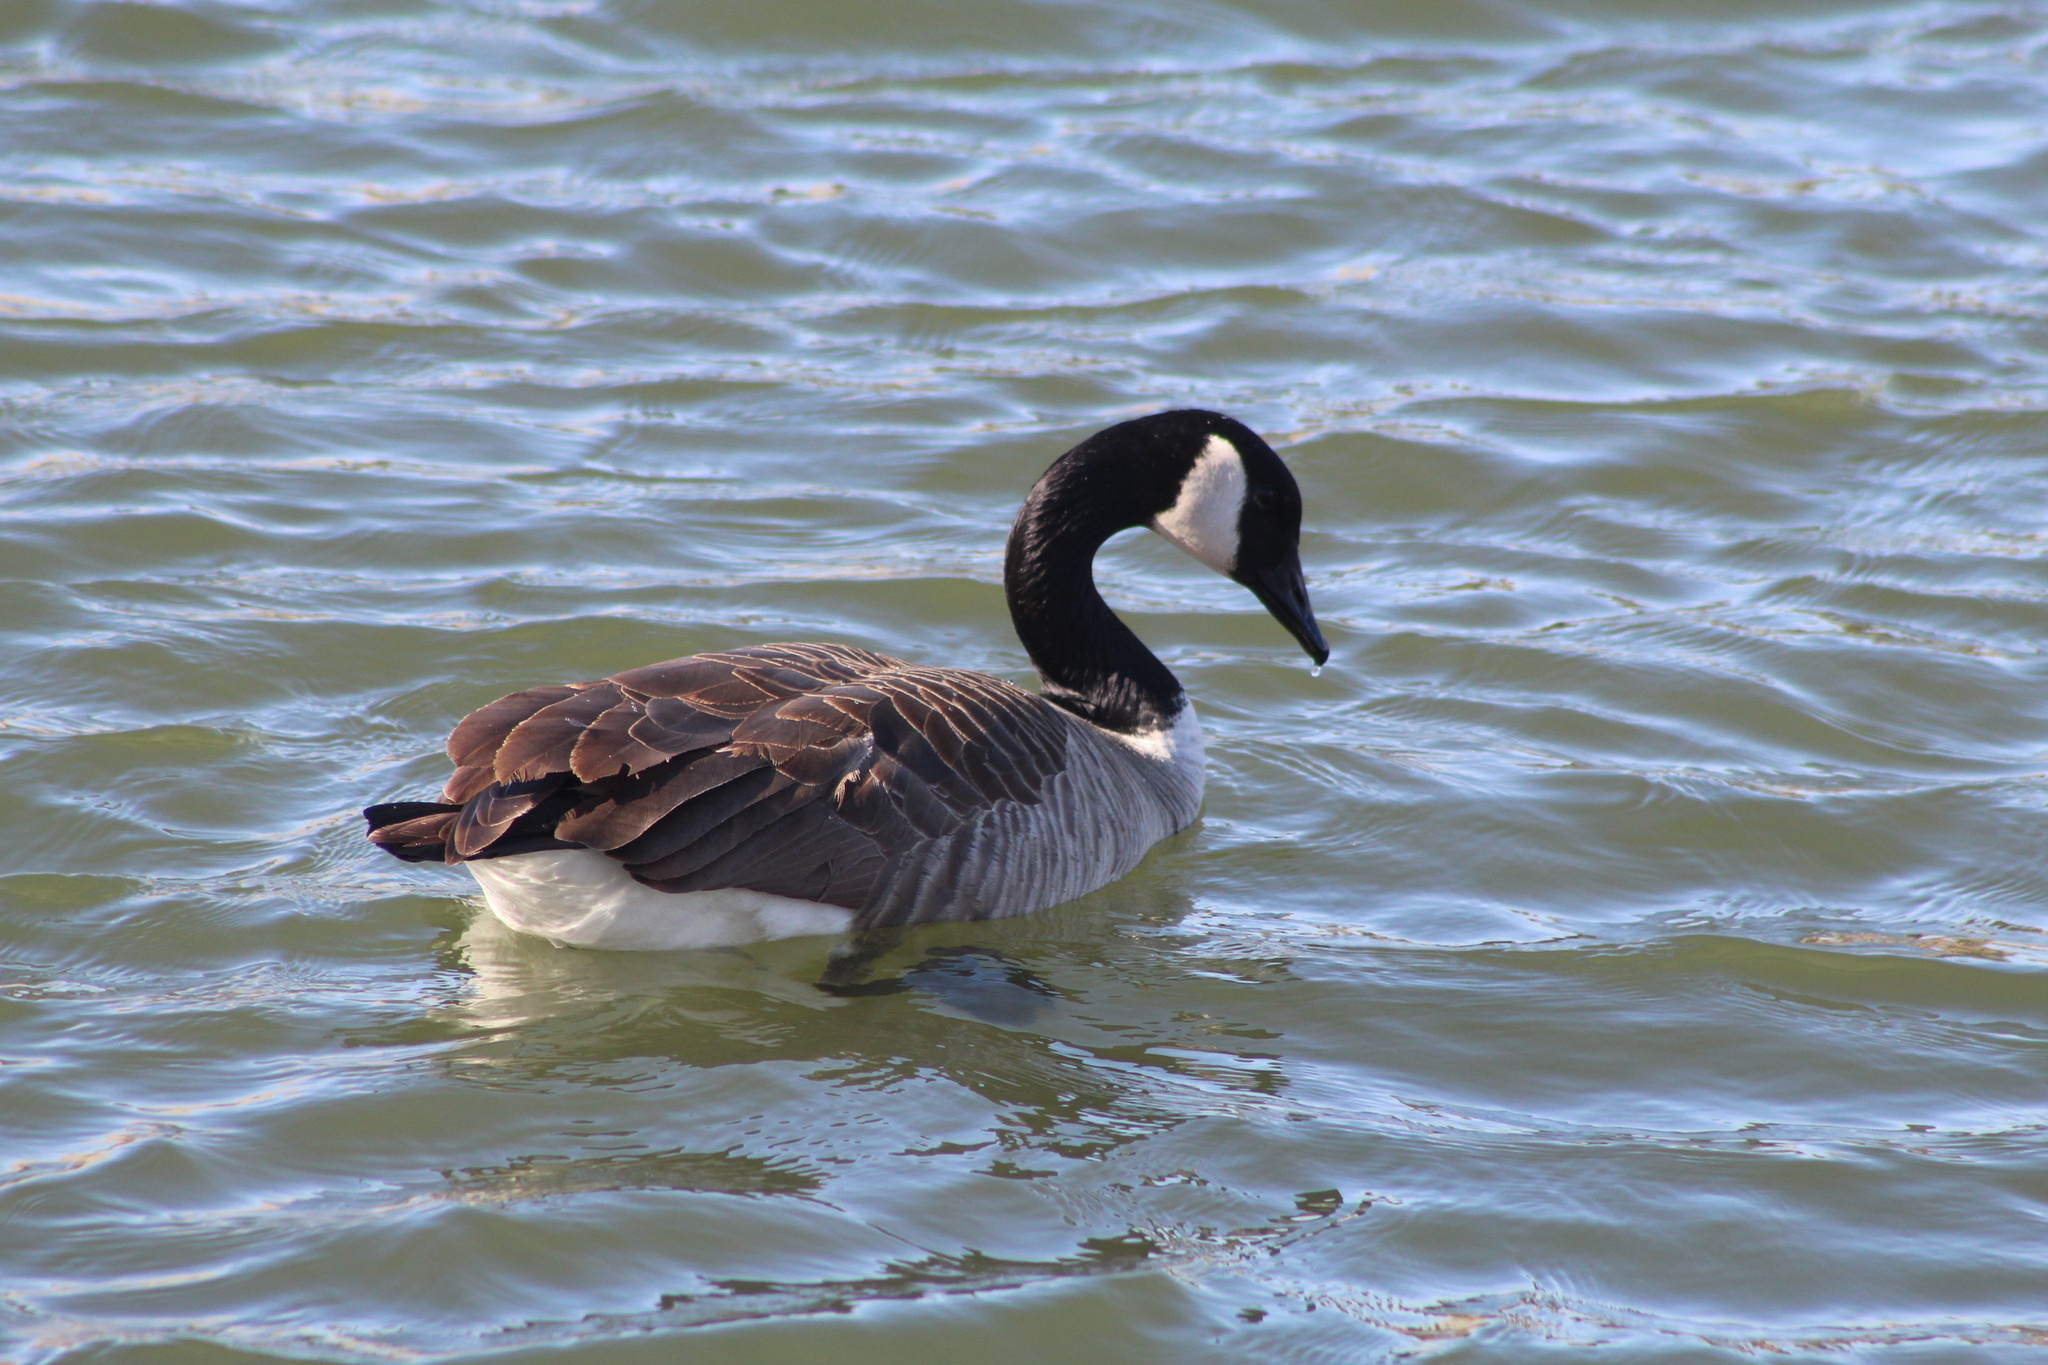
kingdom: Animalia
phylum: Chordata
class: Aves
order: Anseriformes
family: Anatidae
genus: Branta
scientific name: Branta canadensis
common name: Canada goose
